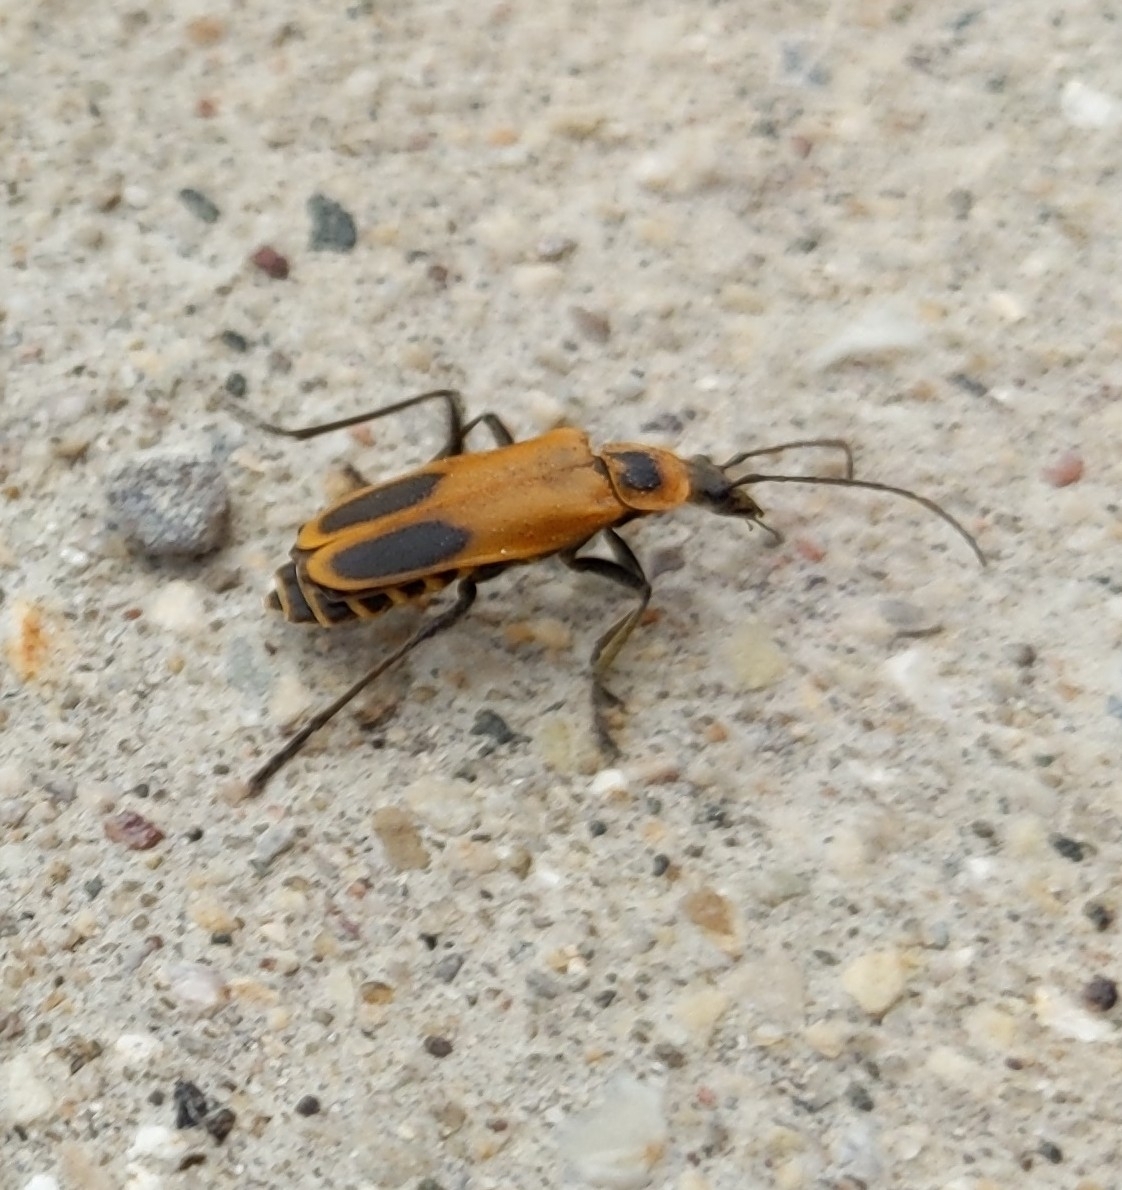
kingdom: Animalia
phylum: Arthropoda
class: Insecta
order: Coleoptera
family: Cantharidae
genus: Chauliognathus
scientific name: Chauliognathus pensylvanicus
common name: Goldenrod soldier beetle
